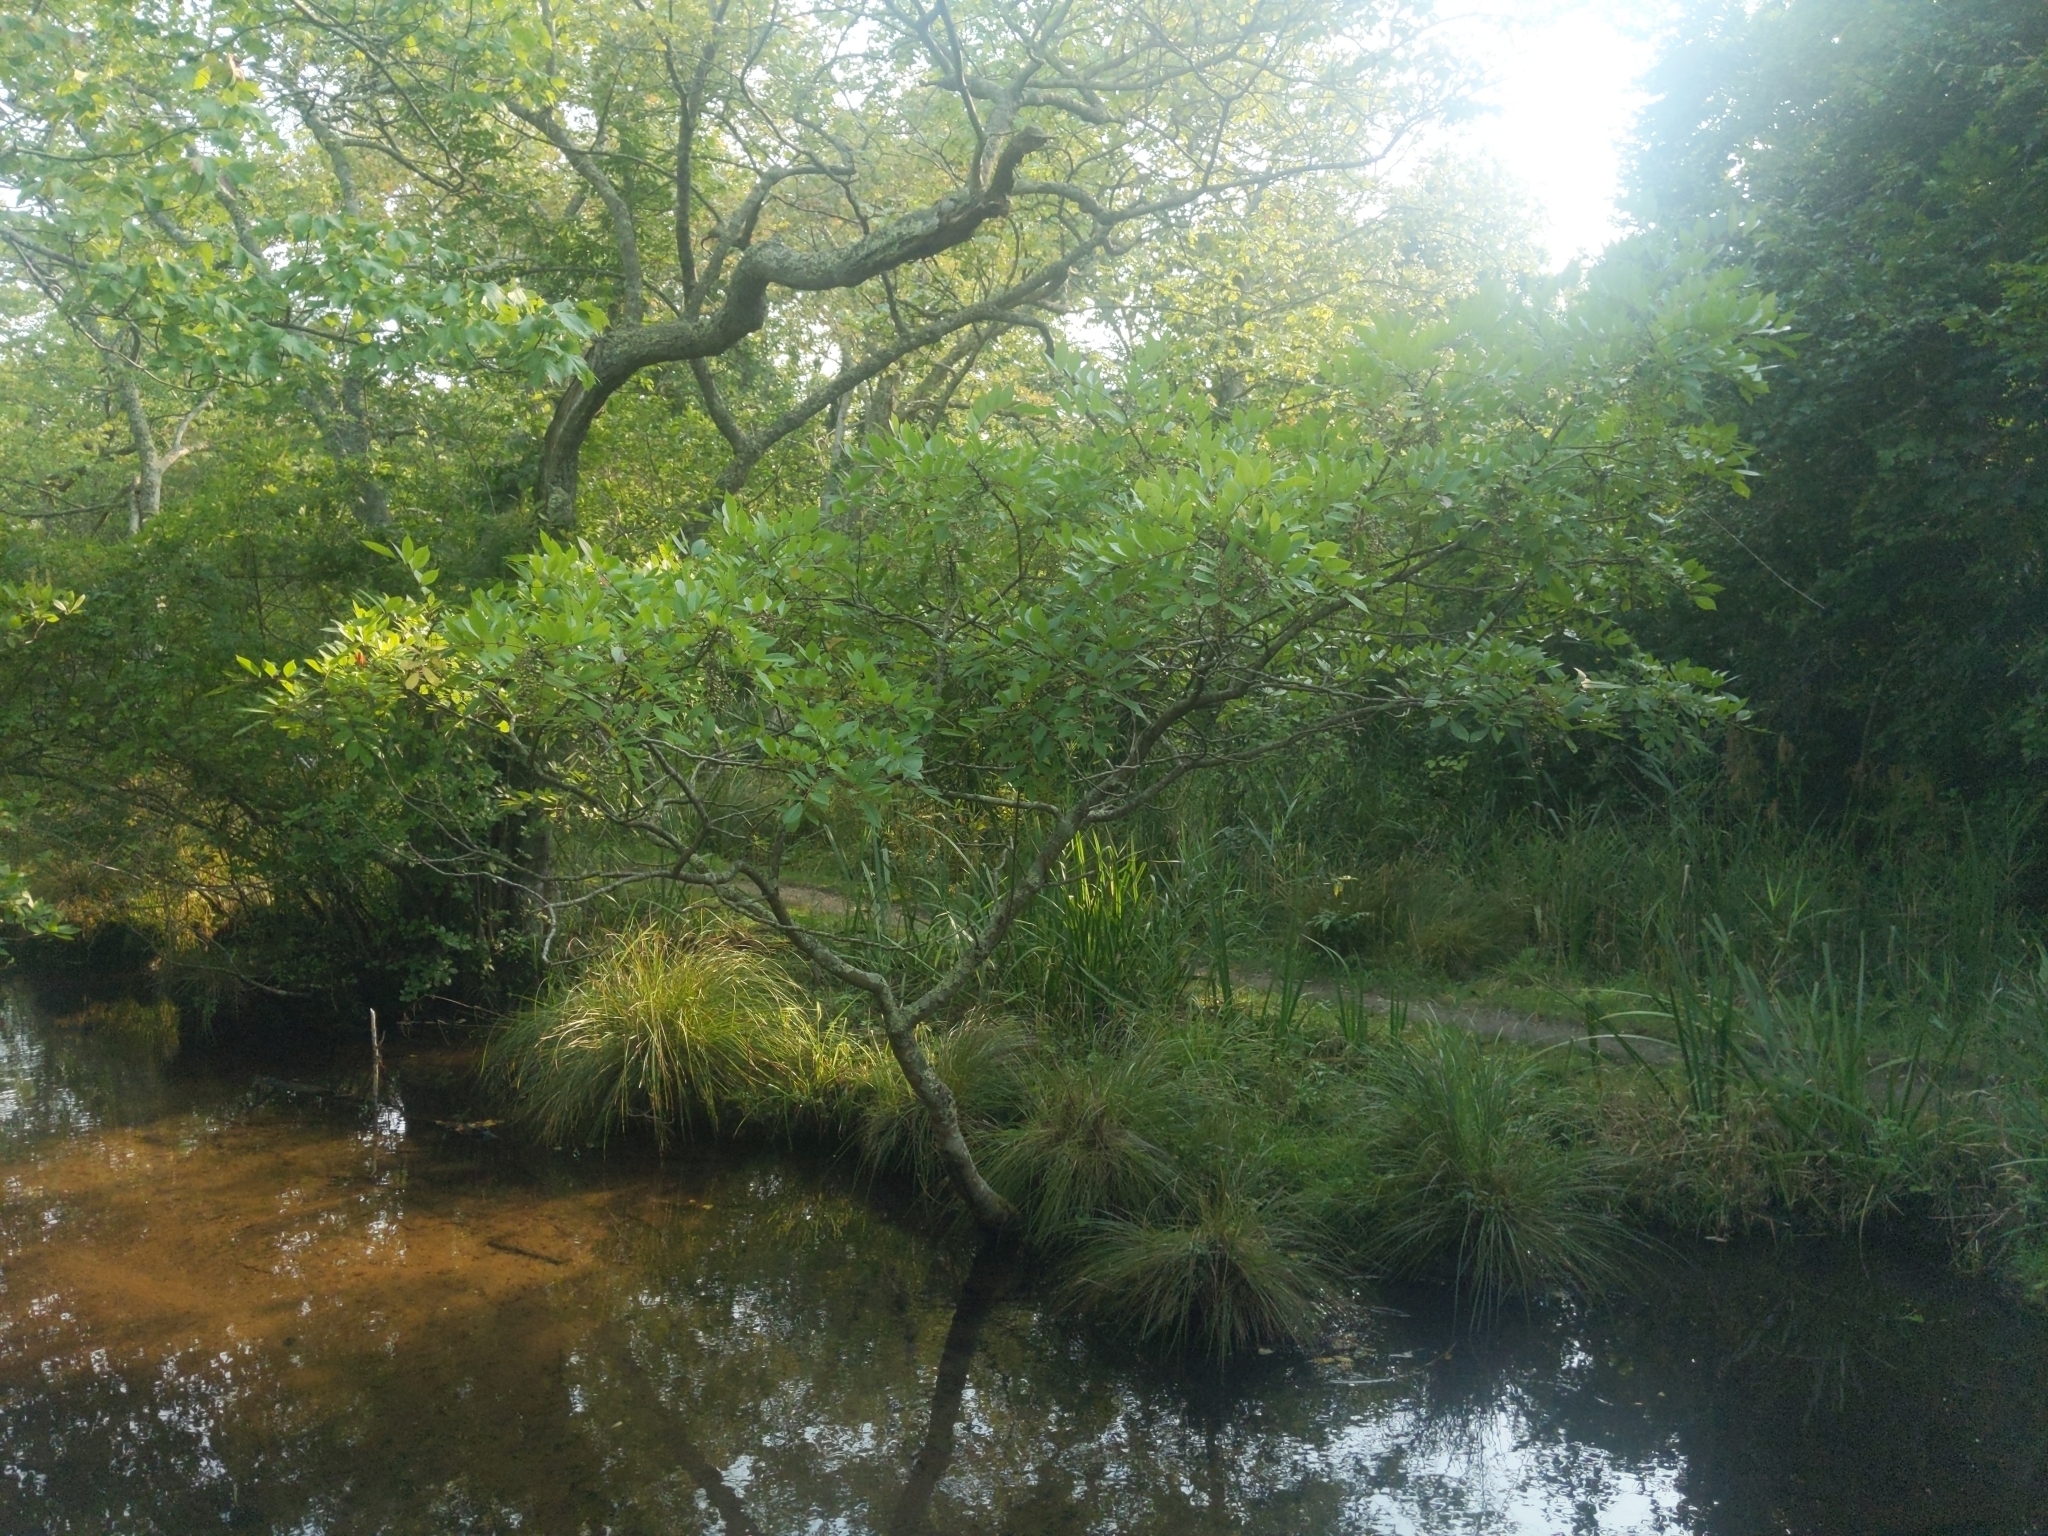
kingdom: Plantae
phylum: Tracheophyta
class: Magnoliopsida
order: Sapindales
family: Anacardiaceae
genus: Toxicodendron
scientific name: Toxicodendron vernix
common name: Poison sumac
